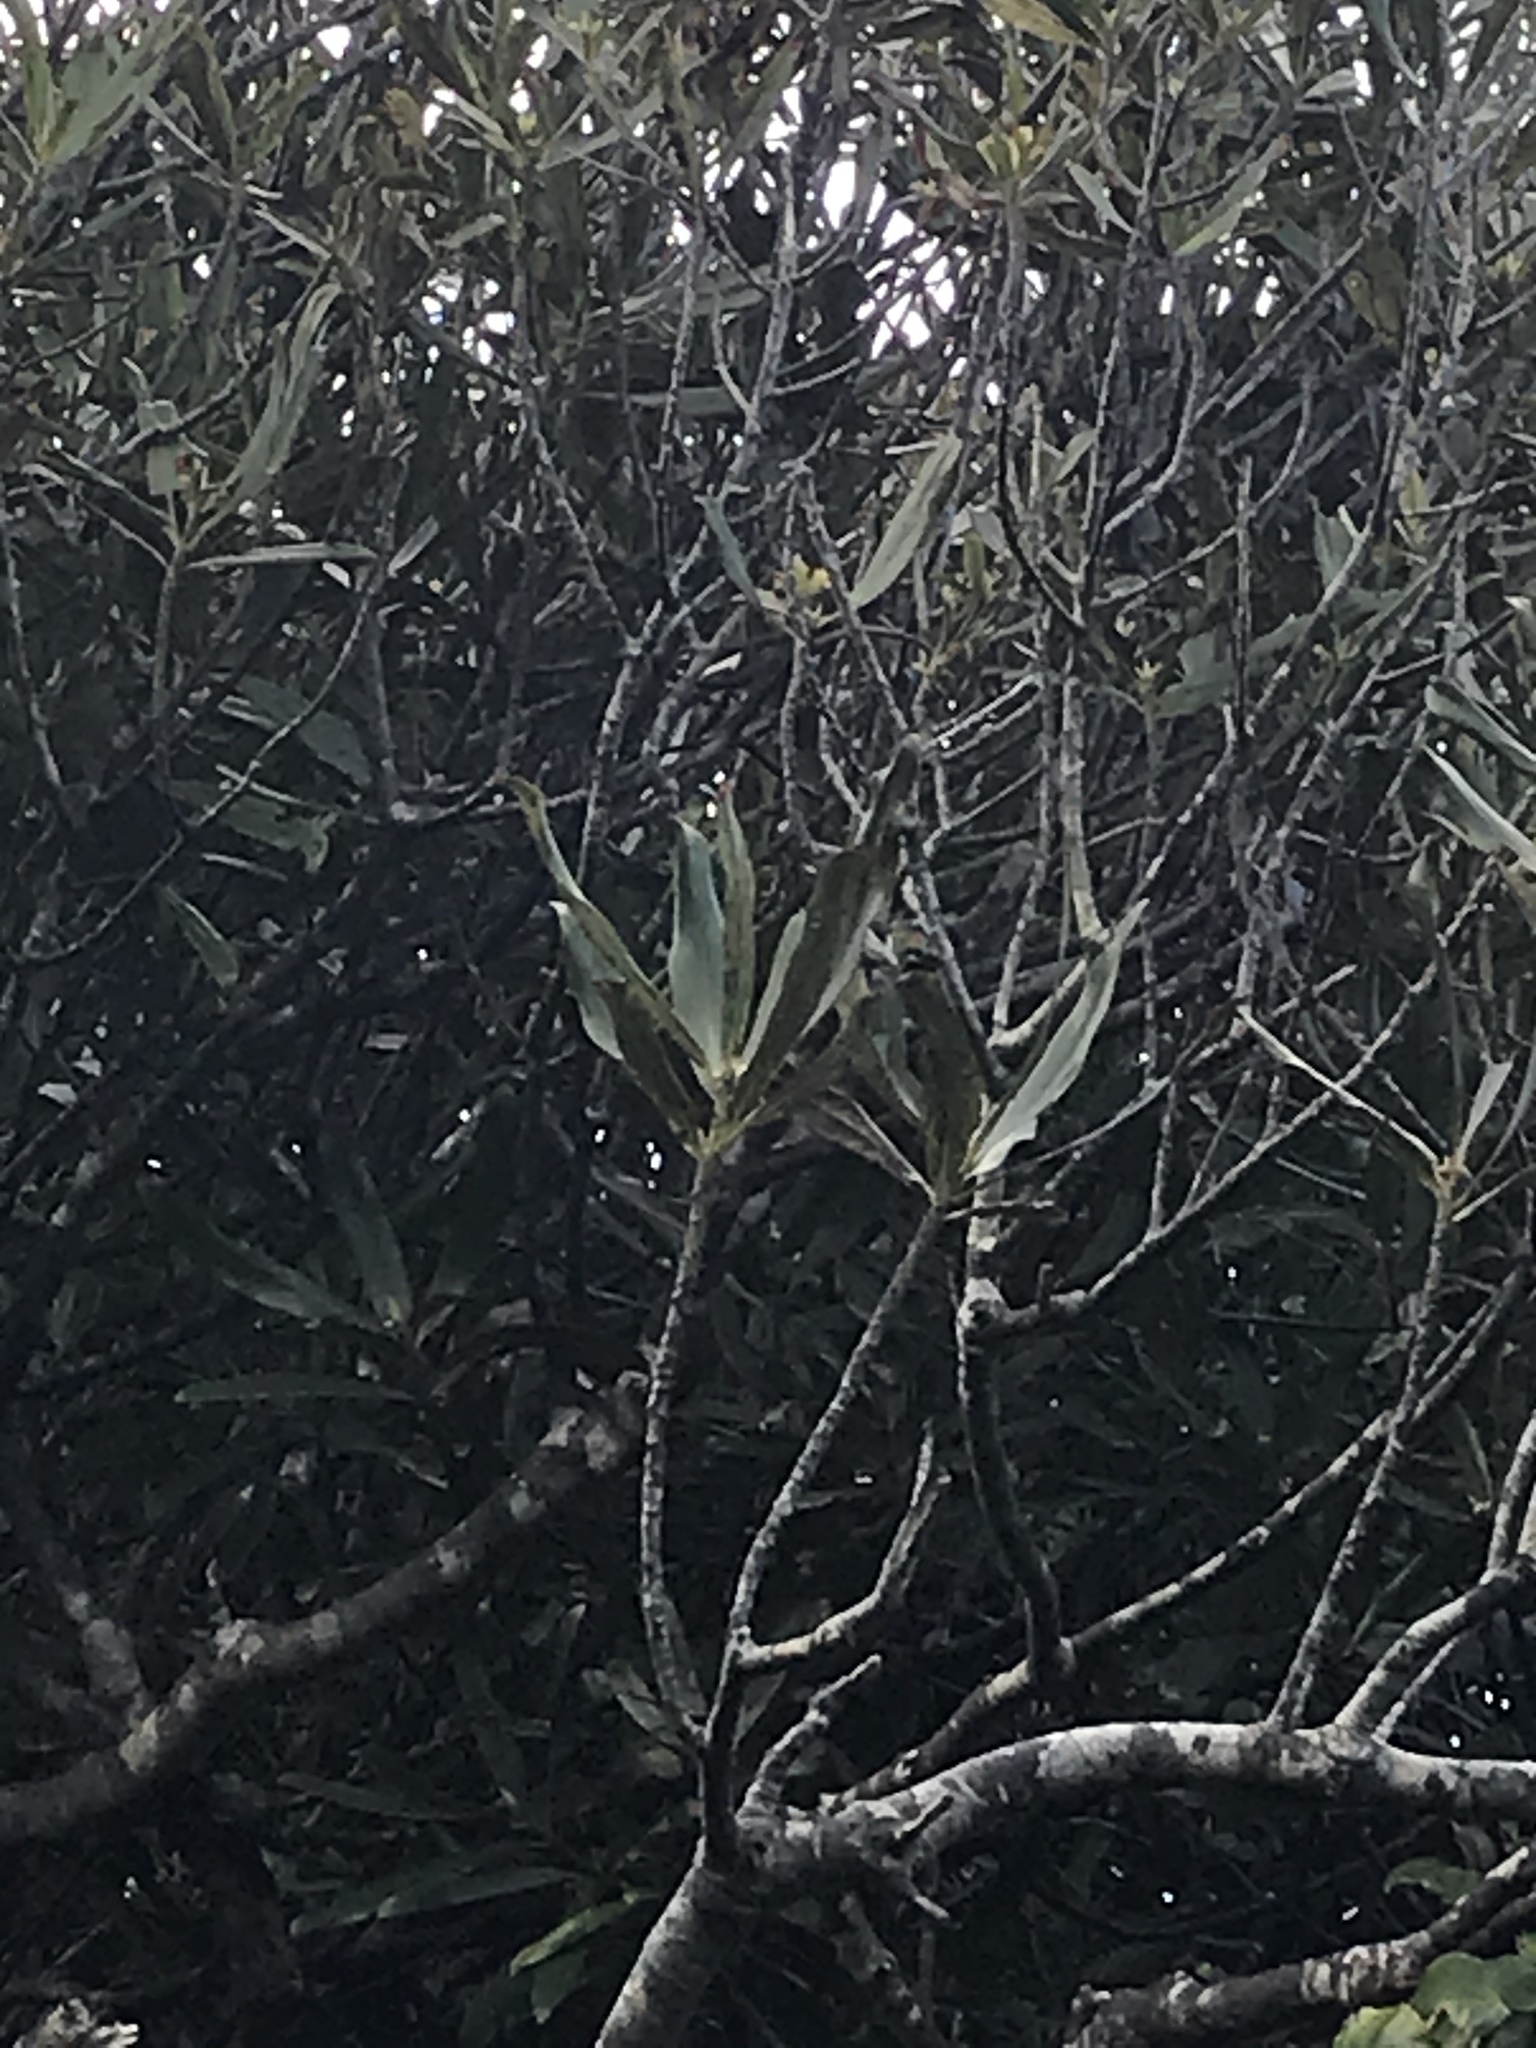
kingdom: Plantae
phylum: Tracheophyta
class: Magnoliopsida
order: Ericales
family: Primulaceae
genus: Myrsine
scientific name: Myrsine salicina
